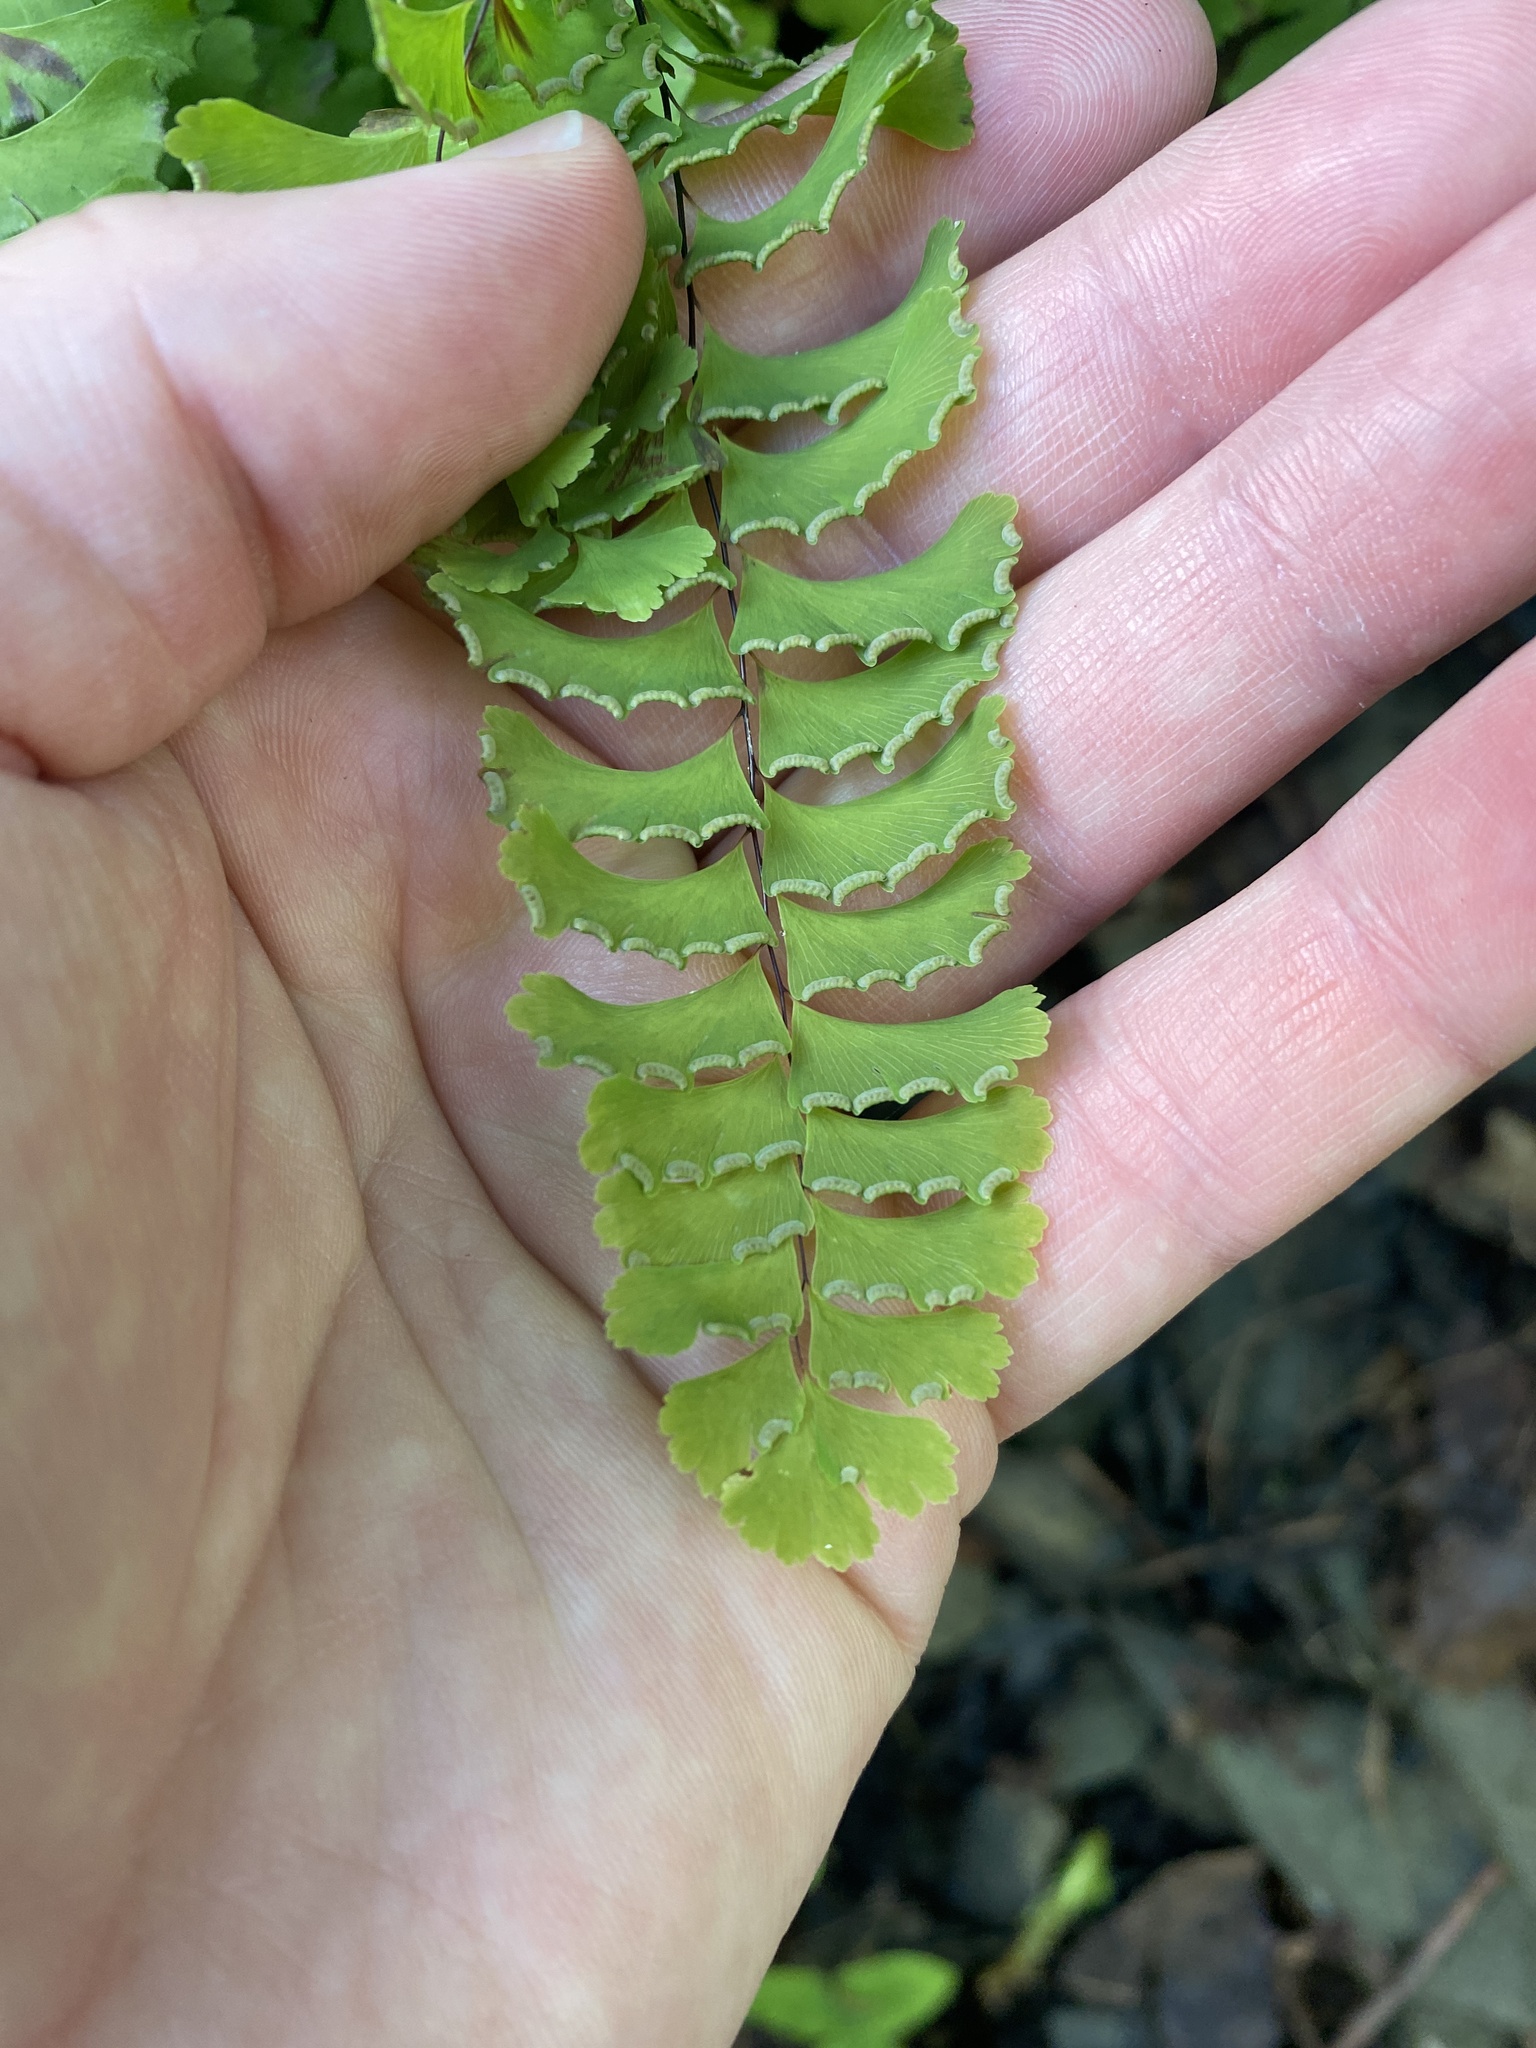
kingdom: Plantae
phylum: Tracheophyta
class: Polypodiopsida
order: Polypodiales
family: Pteridaceae
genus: Adiantum
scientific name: Adiantum pedatum
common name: Five-finger fern
